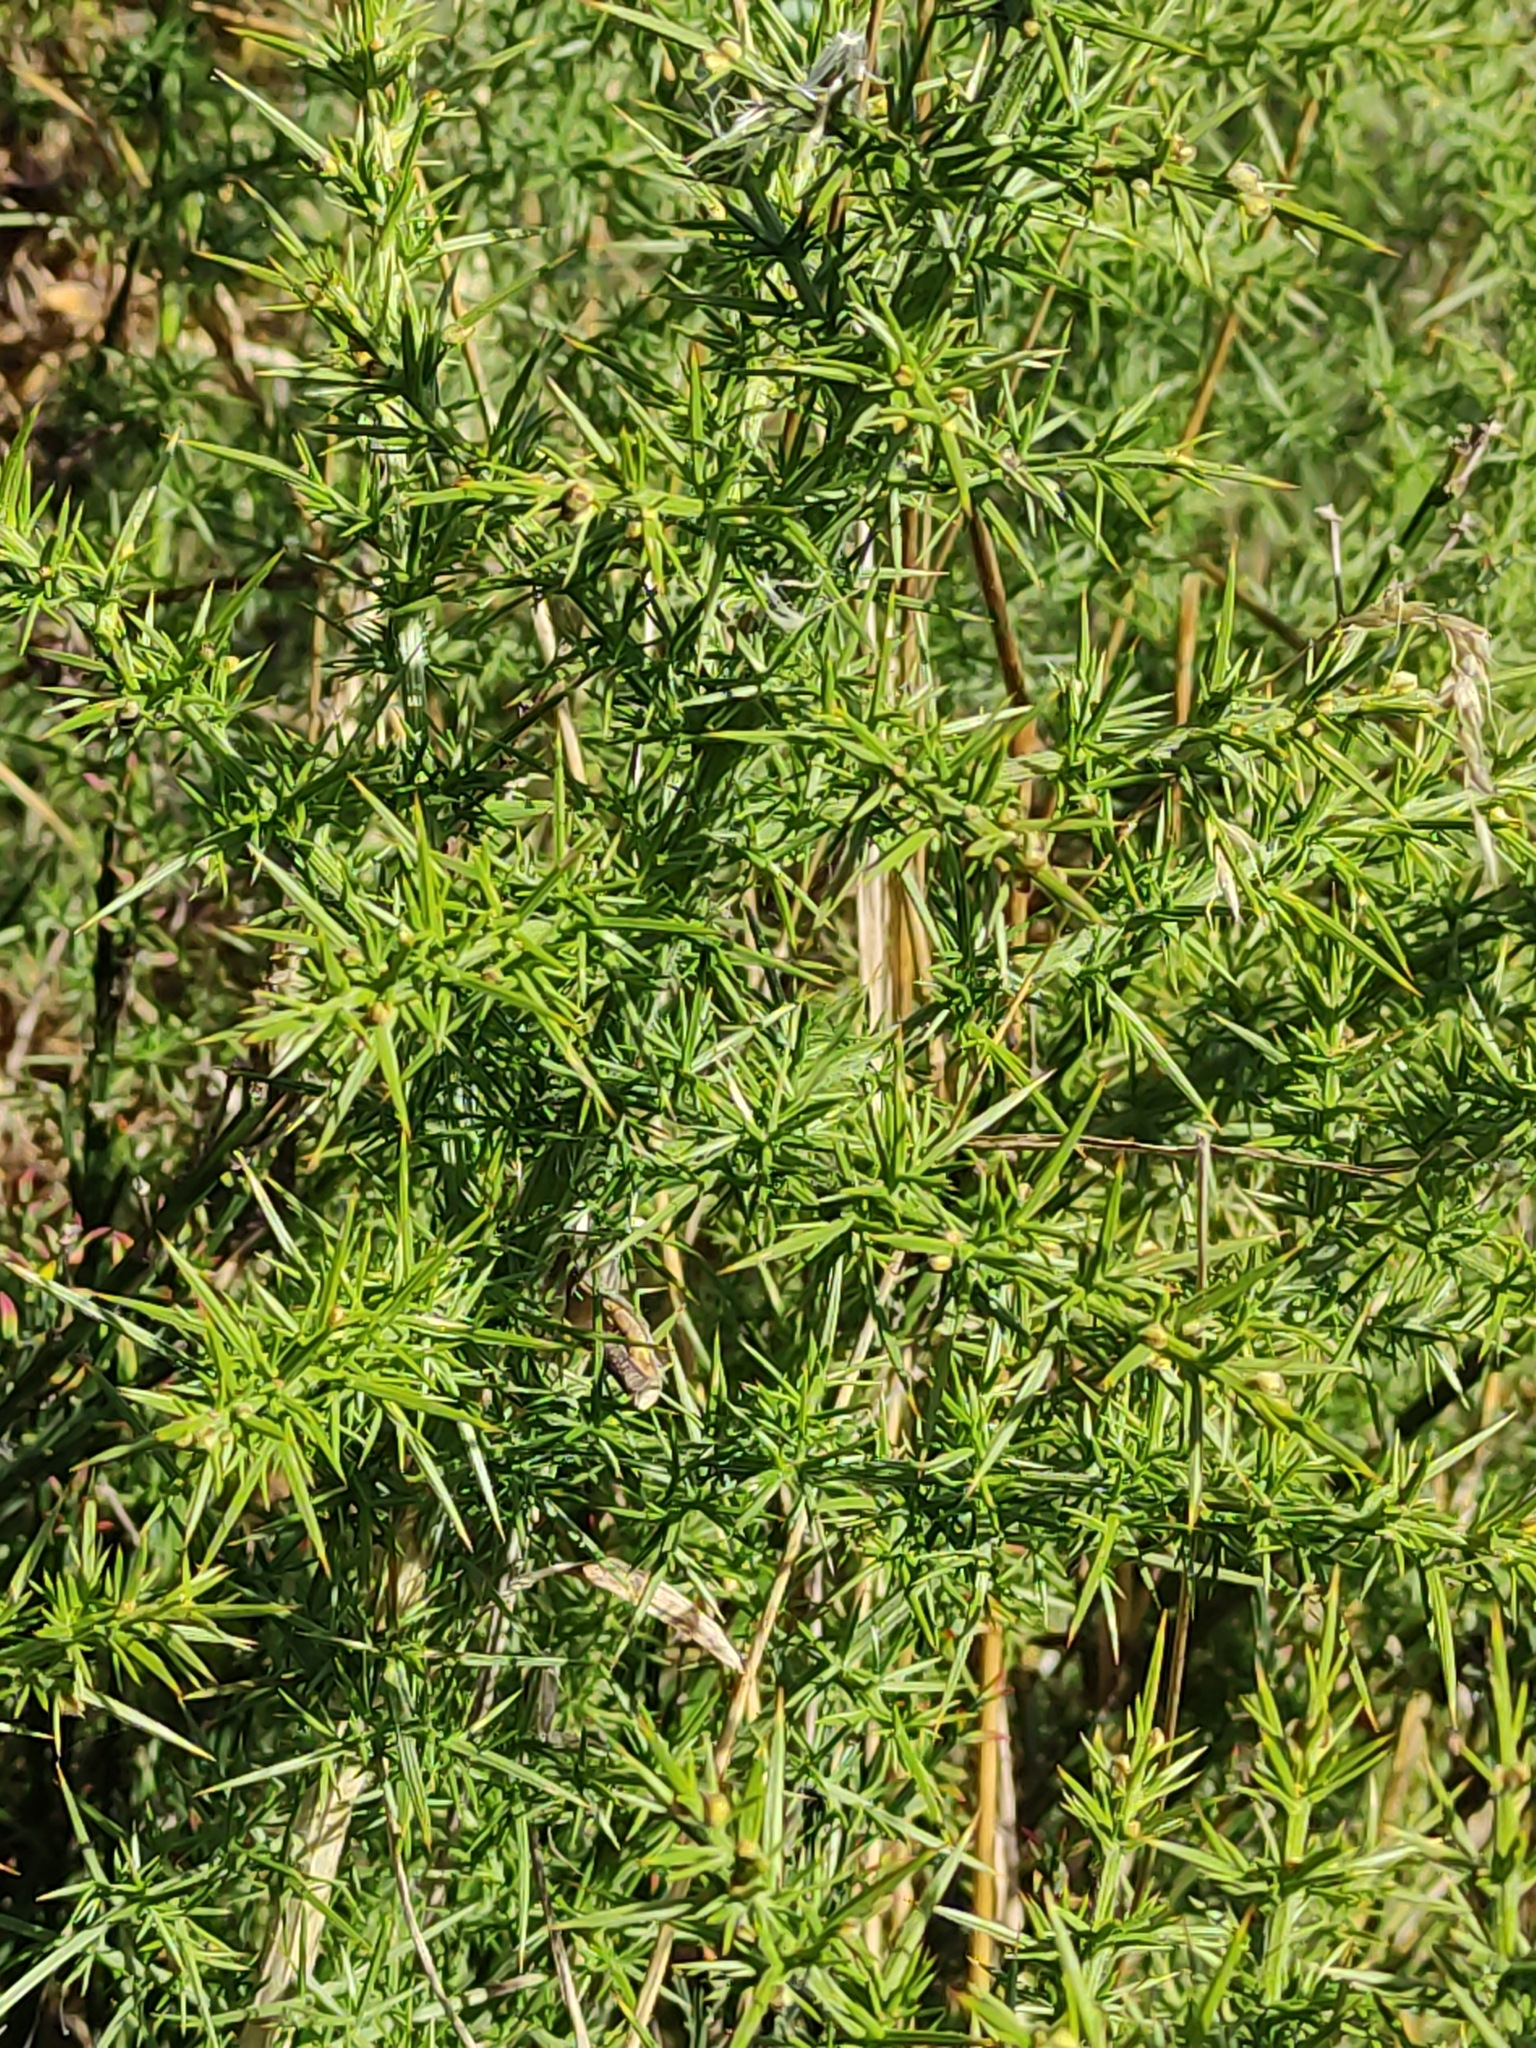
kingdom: Plantae
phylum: Tracheophyta
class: Magnoliopsida
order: Fabales
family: Fabaceae
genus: Ulex
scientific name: Ulex europaeus
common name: Common gorse
